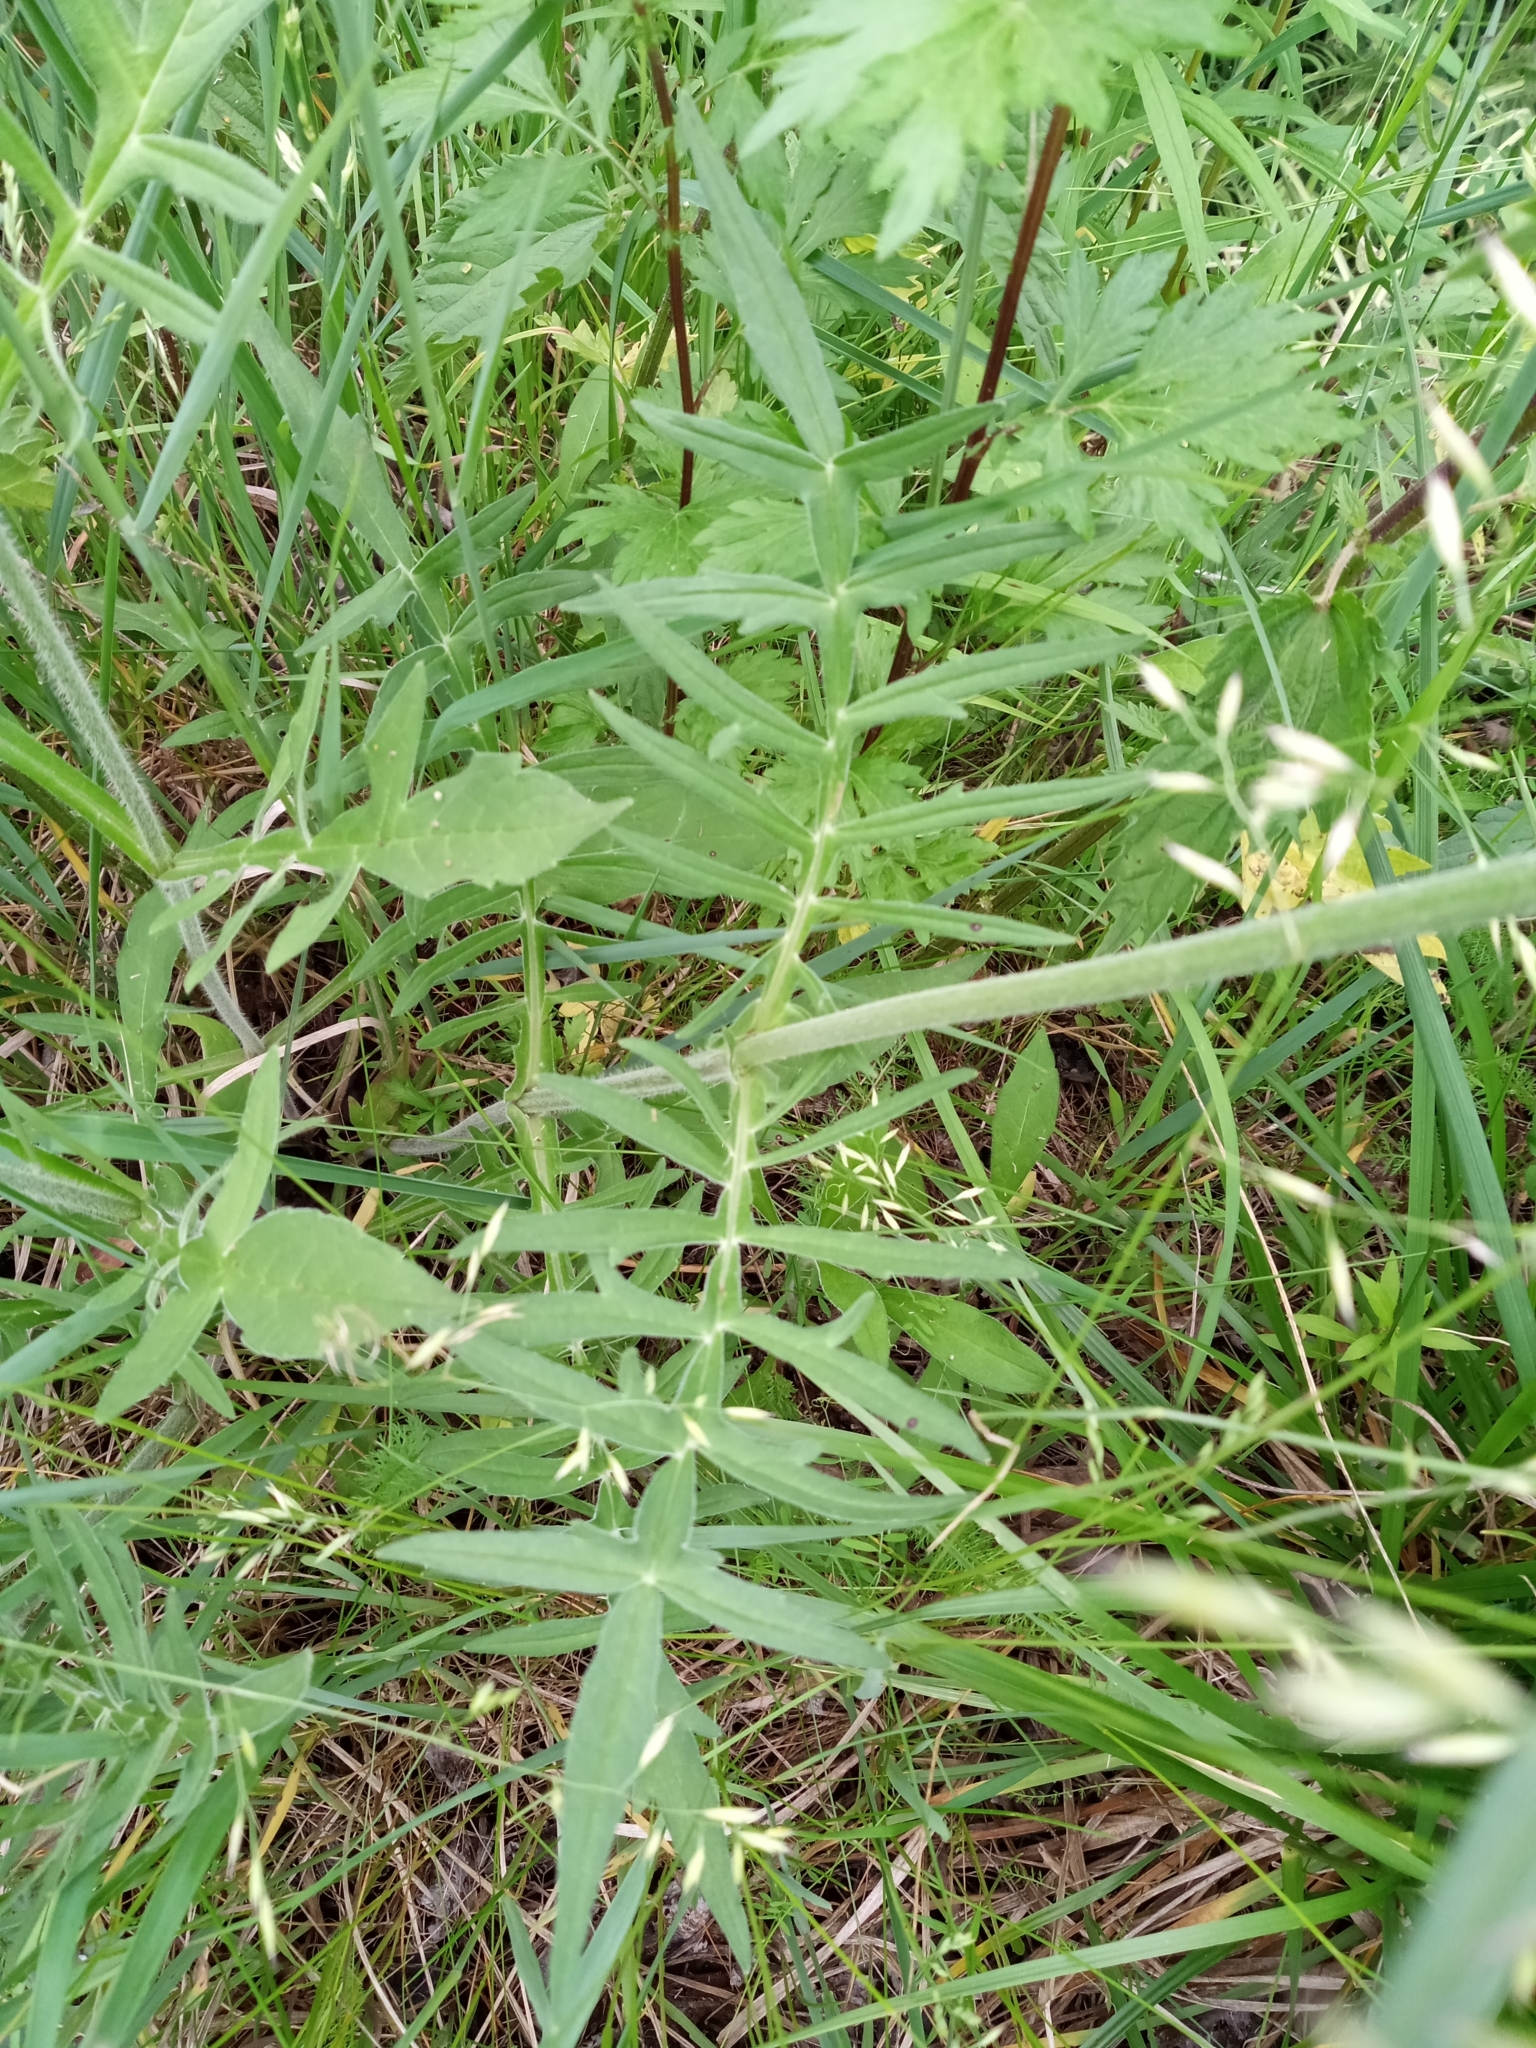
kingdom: Plantae
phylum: Tracheophyta
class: Magnoliopsida
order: Dipsacales
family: Caprifoliaceae
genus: Knautia
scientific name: Knautia arvensis
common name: Field scabiosa
